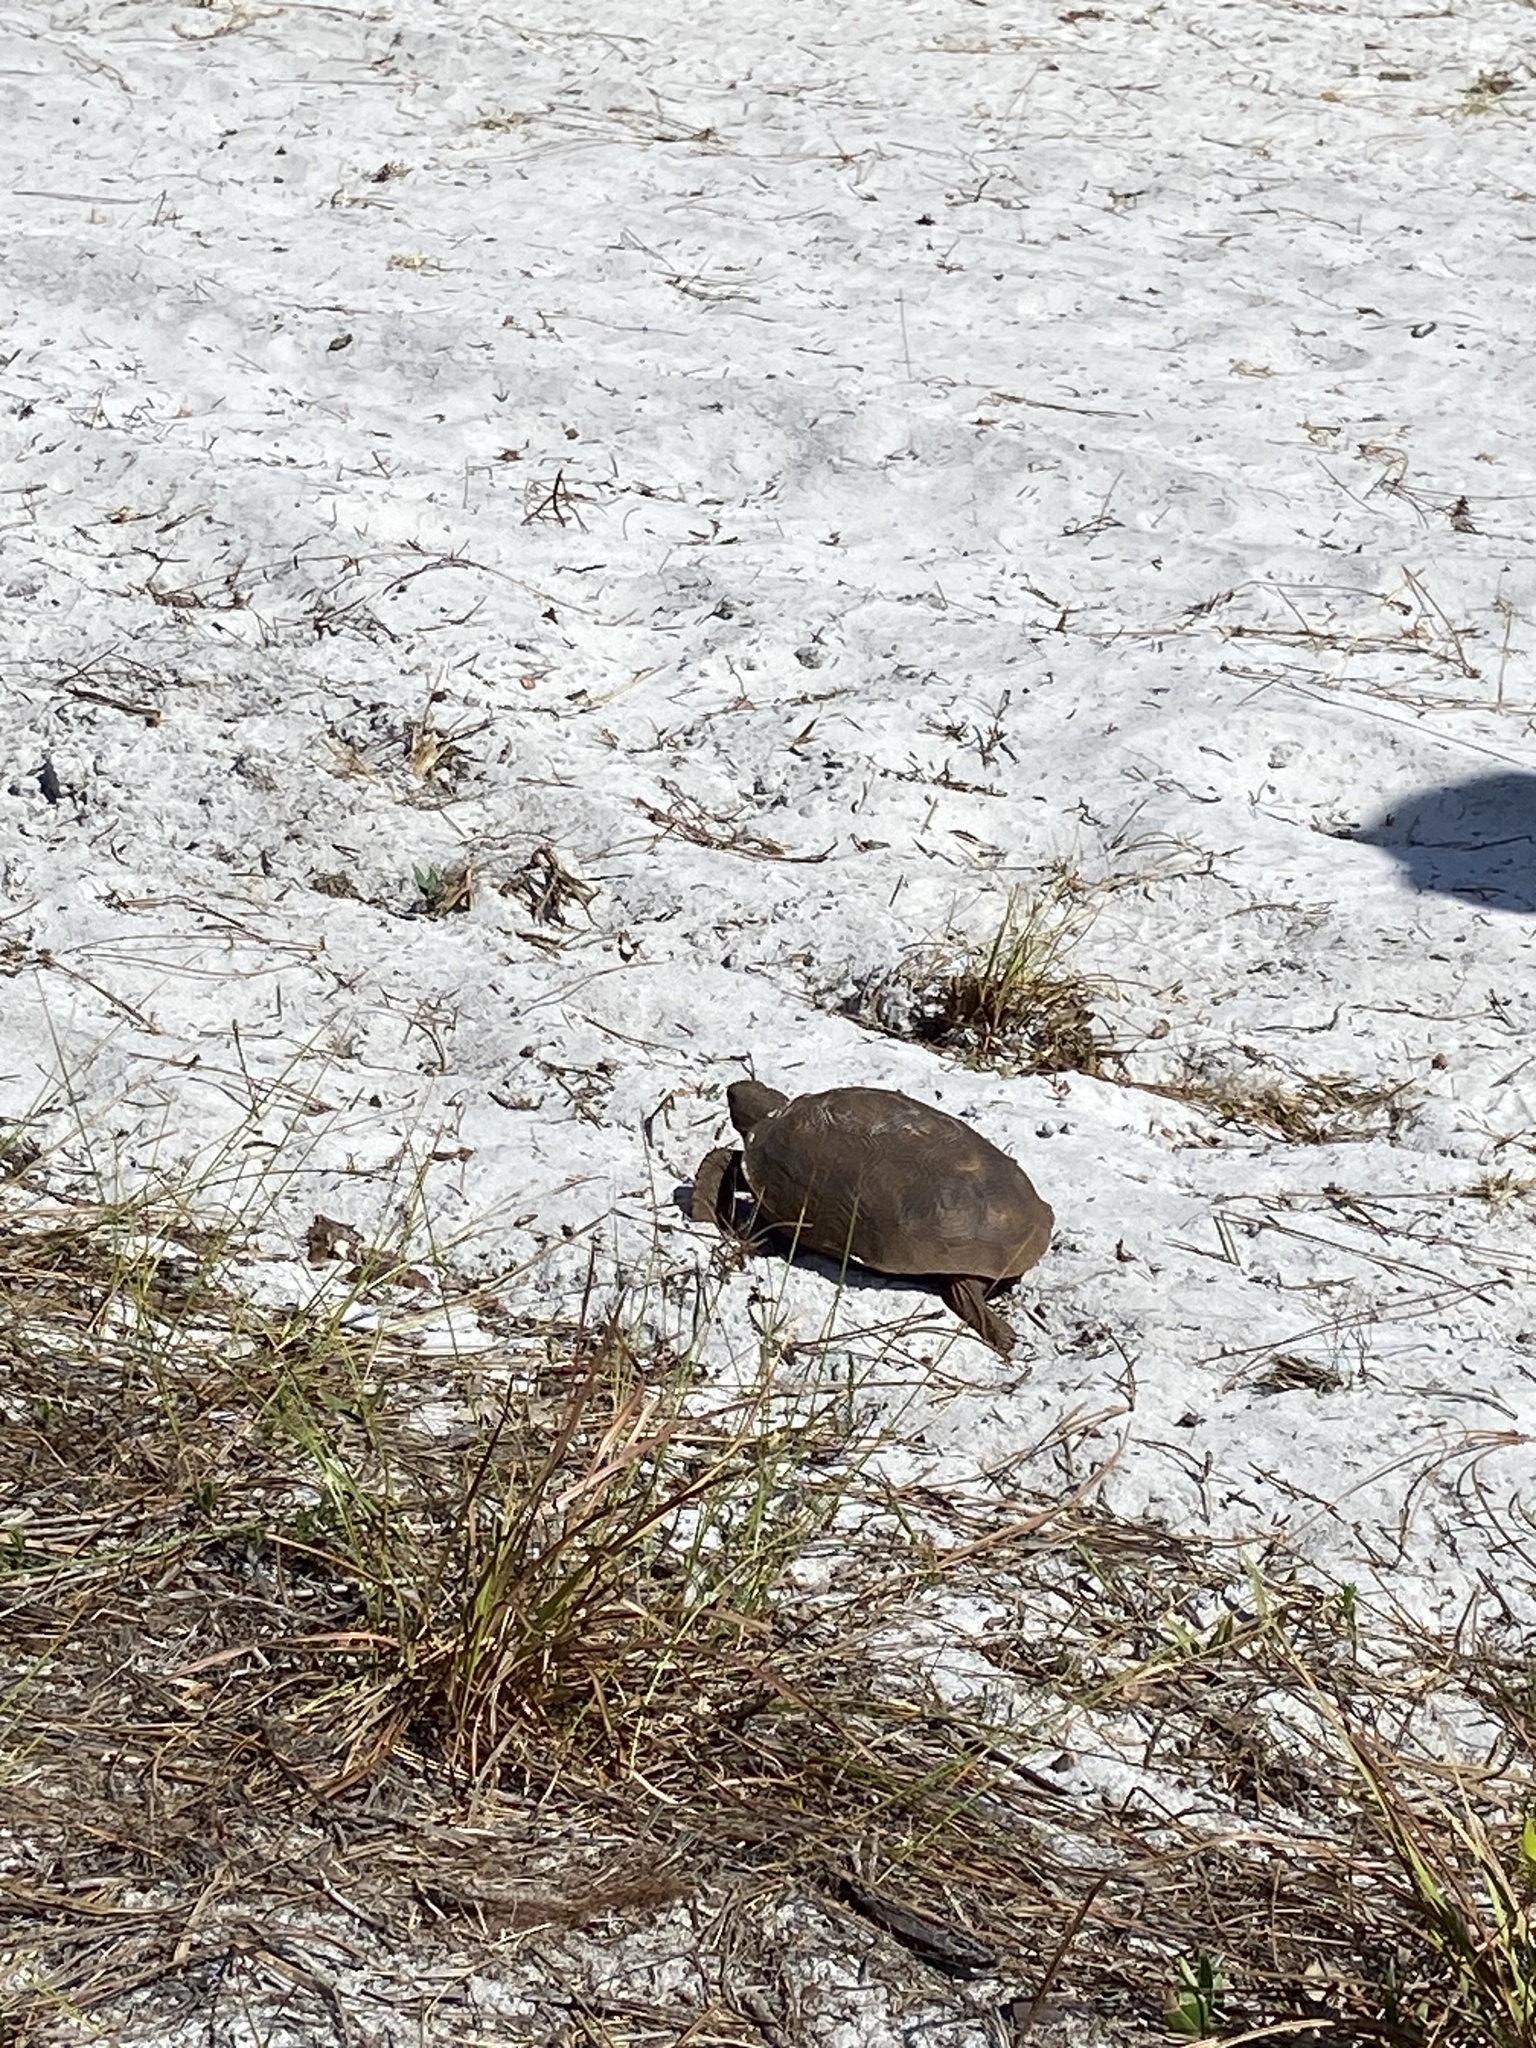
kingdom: Animalia
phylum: Chordata
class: Testudines
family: Testudinidae
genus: Gopherus
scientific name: Gopherus polyphemus
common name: Florida gopher tortoise
